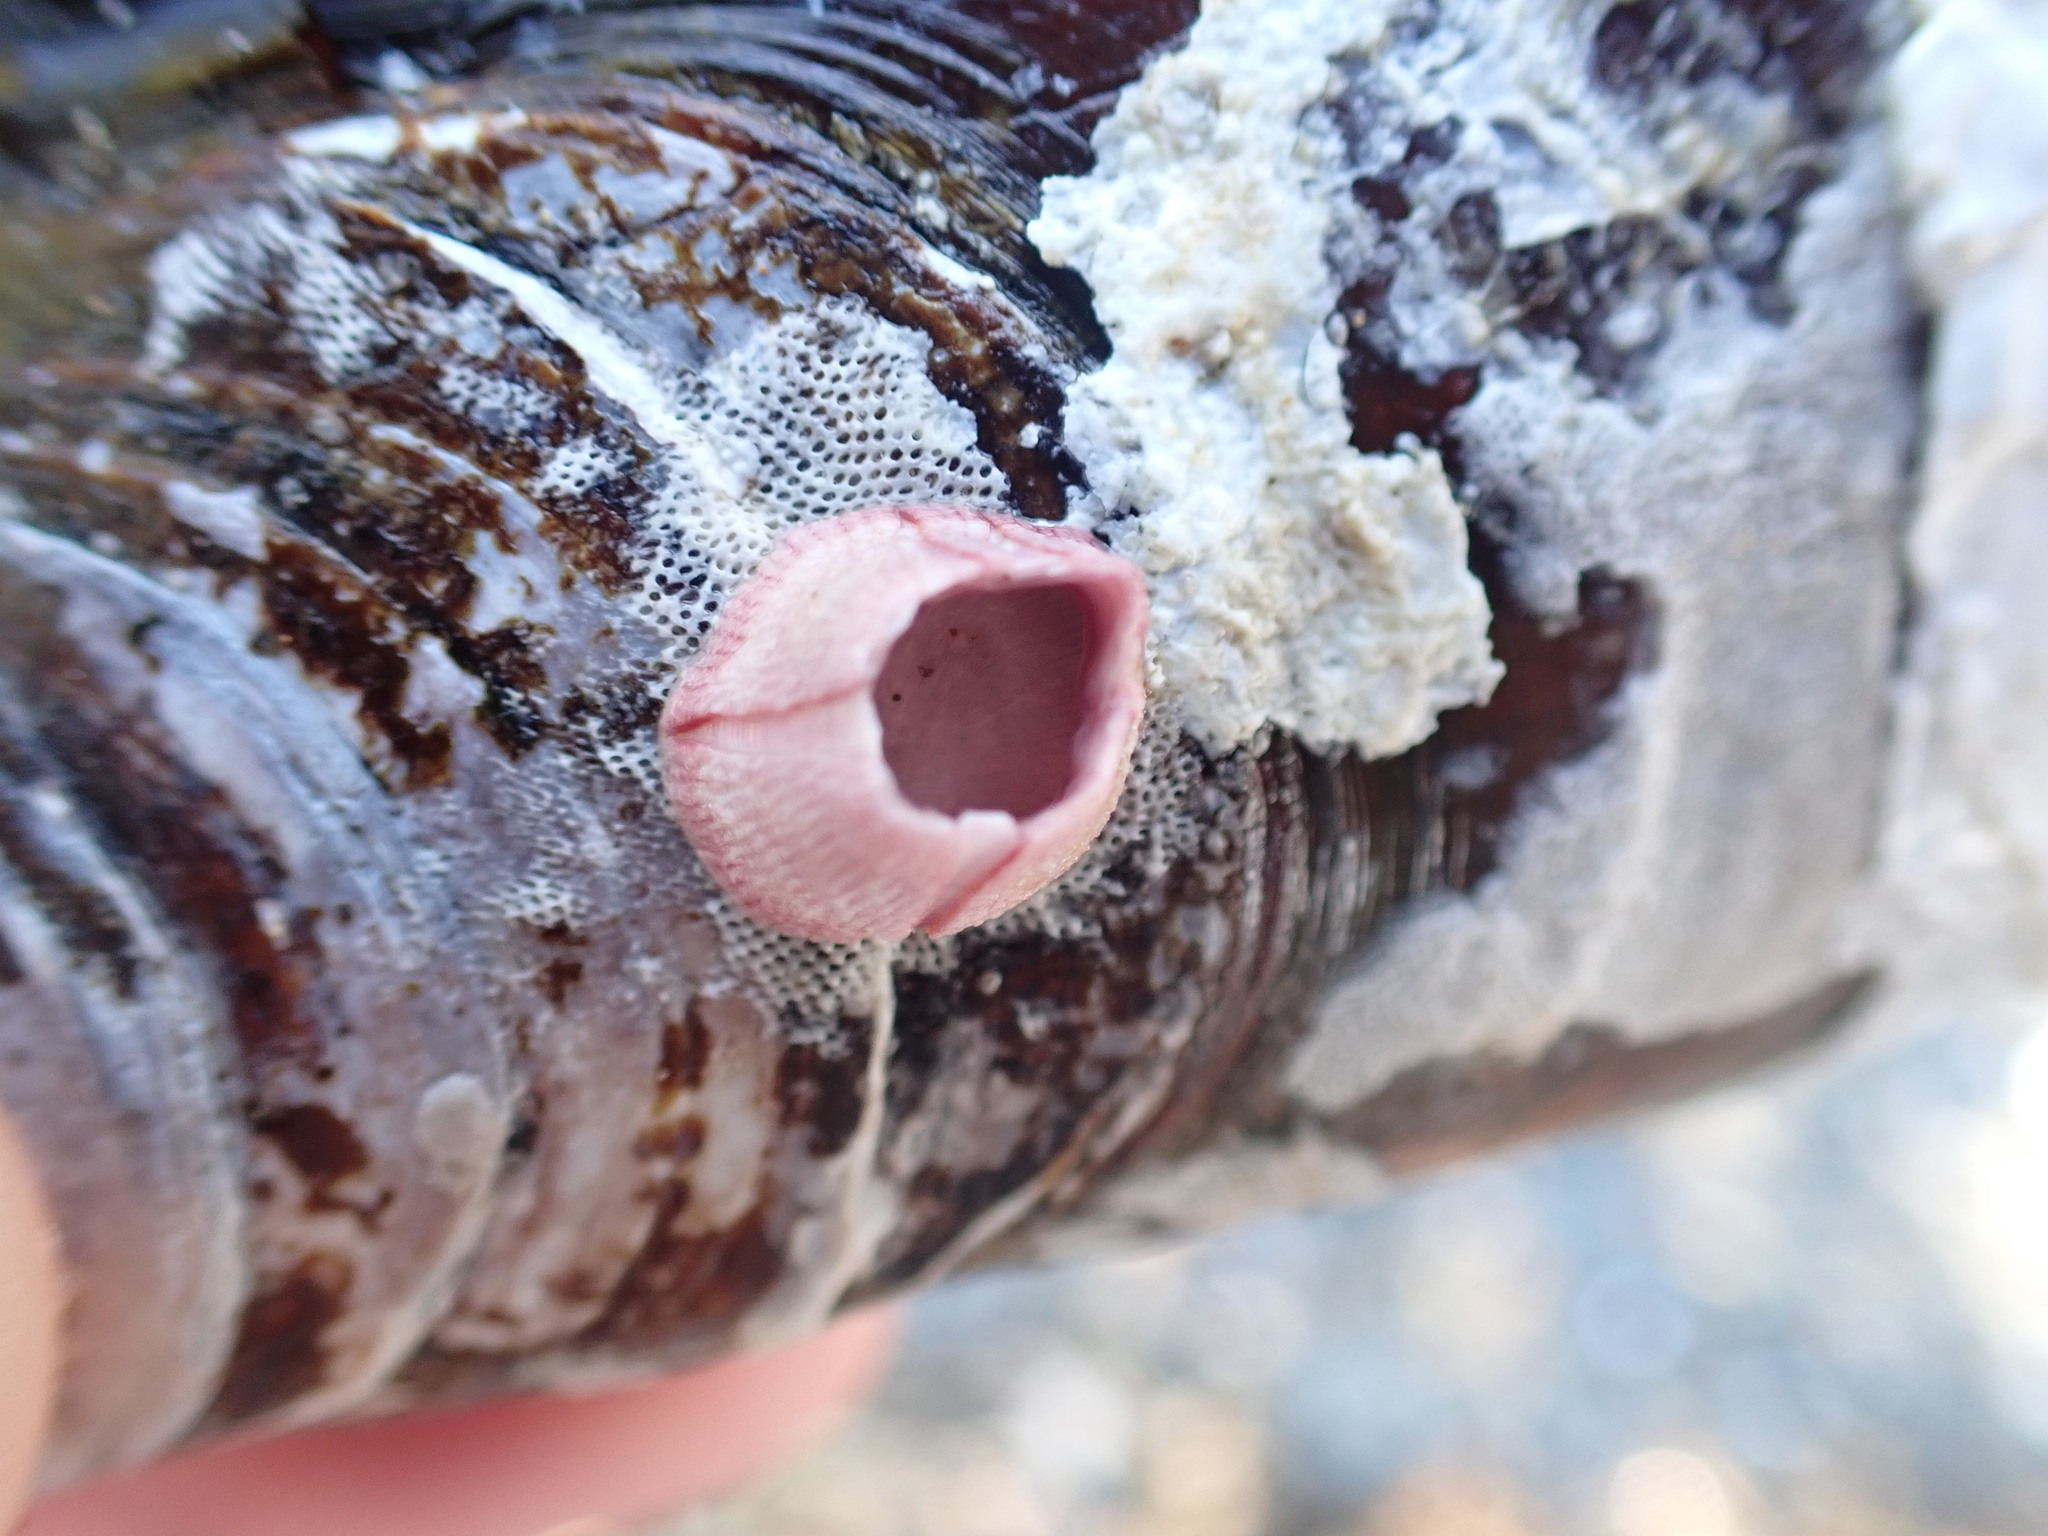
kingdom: Animalia
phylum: Arthropoda
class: Maxillopoda
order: Sessilia
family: Balanidae
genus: Notomegabalanus
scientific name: Notomegabalanus decorus
